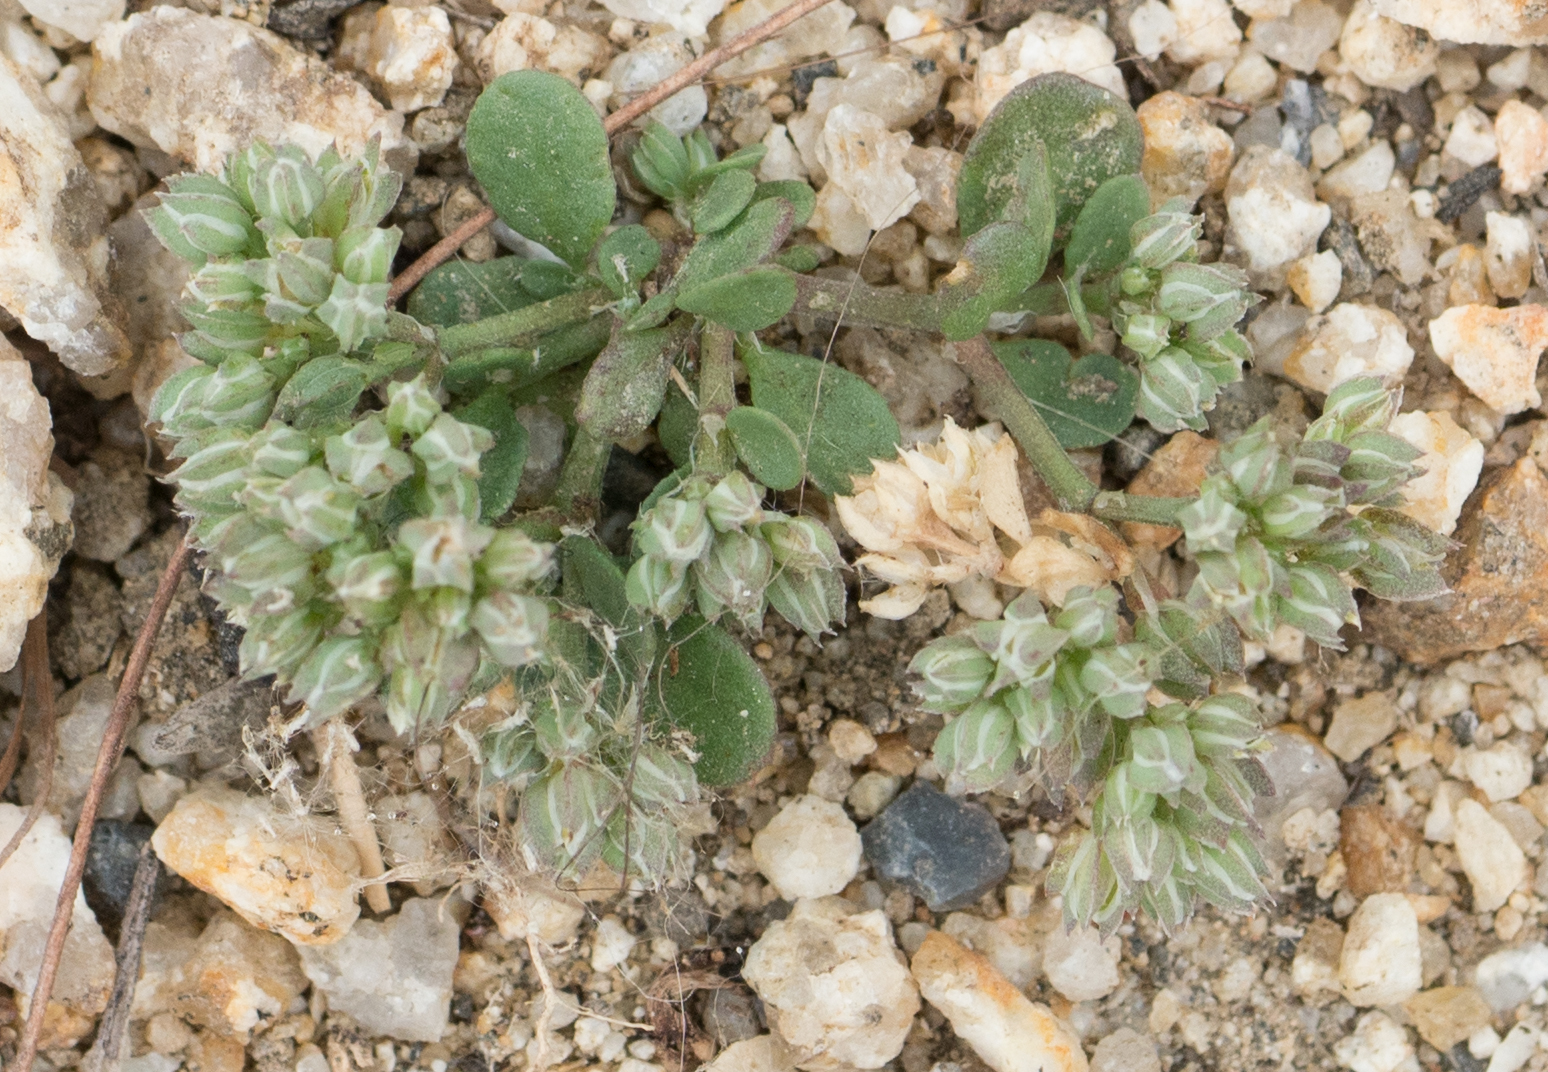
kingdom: Plantae
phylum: Tracheophyta
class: Magnoliopsida
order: Caryophyllales
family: Caryophyllaceae
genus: Polycarpon
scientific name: Polycarpon tetraphyllum
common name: Four-leaved all-seed
